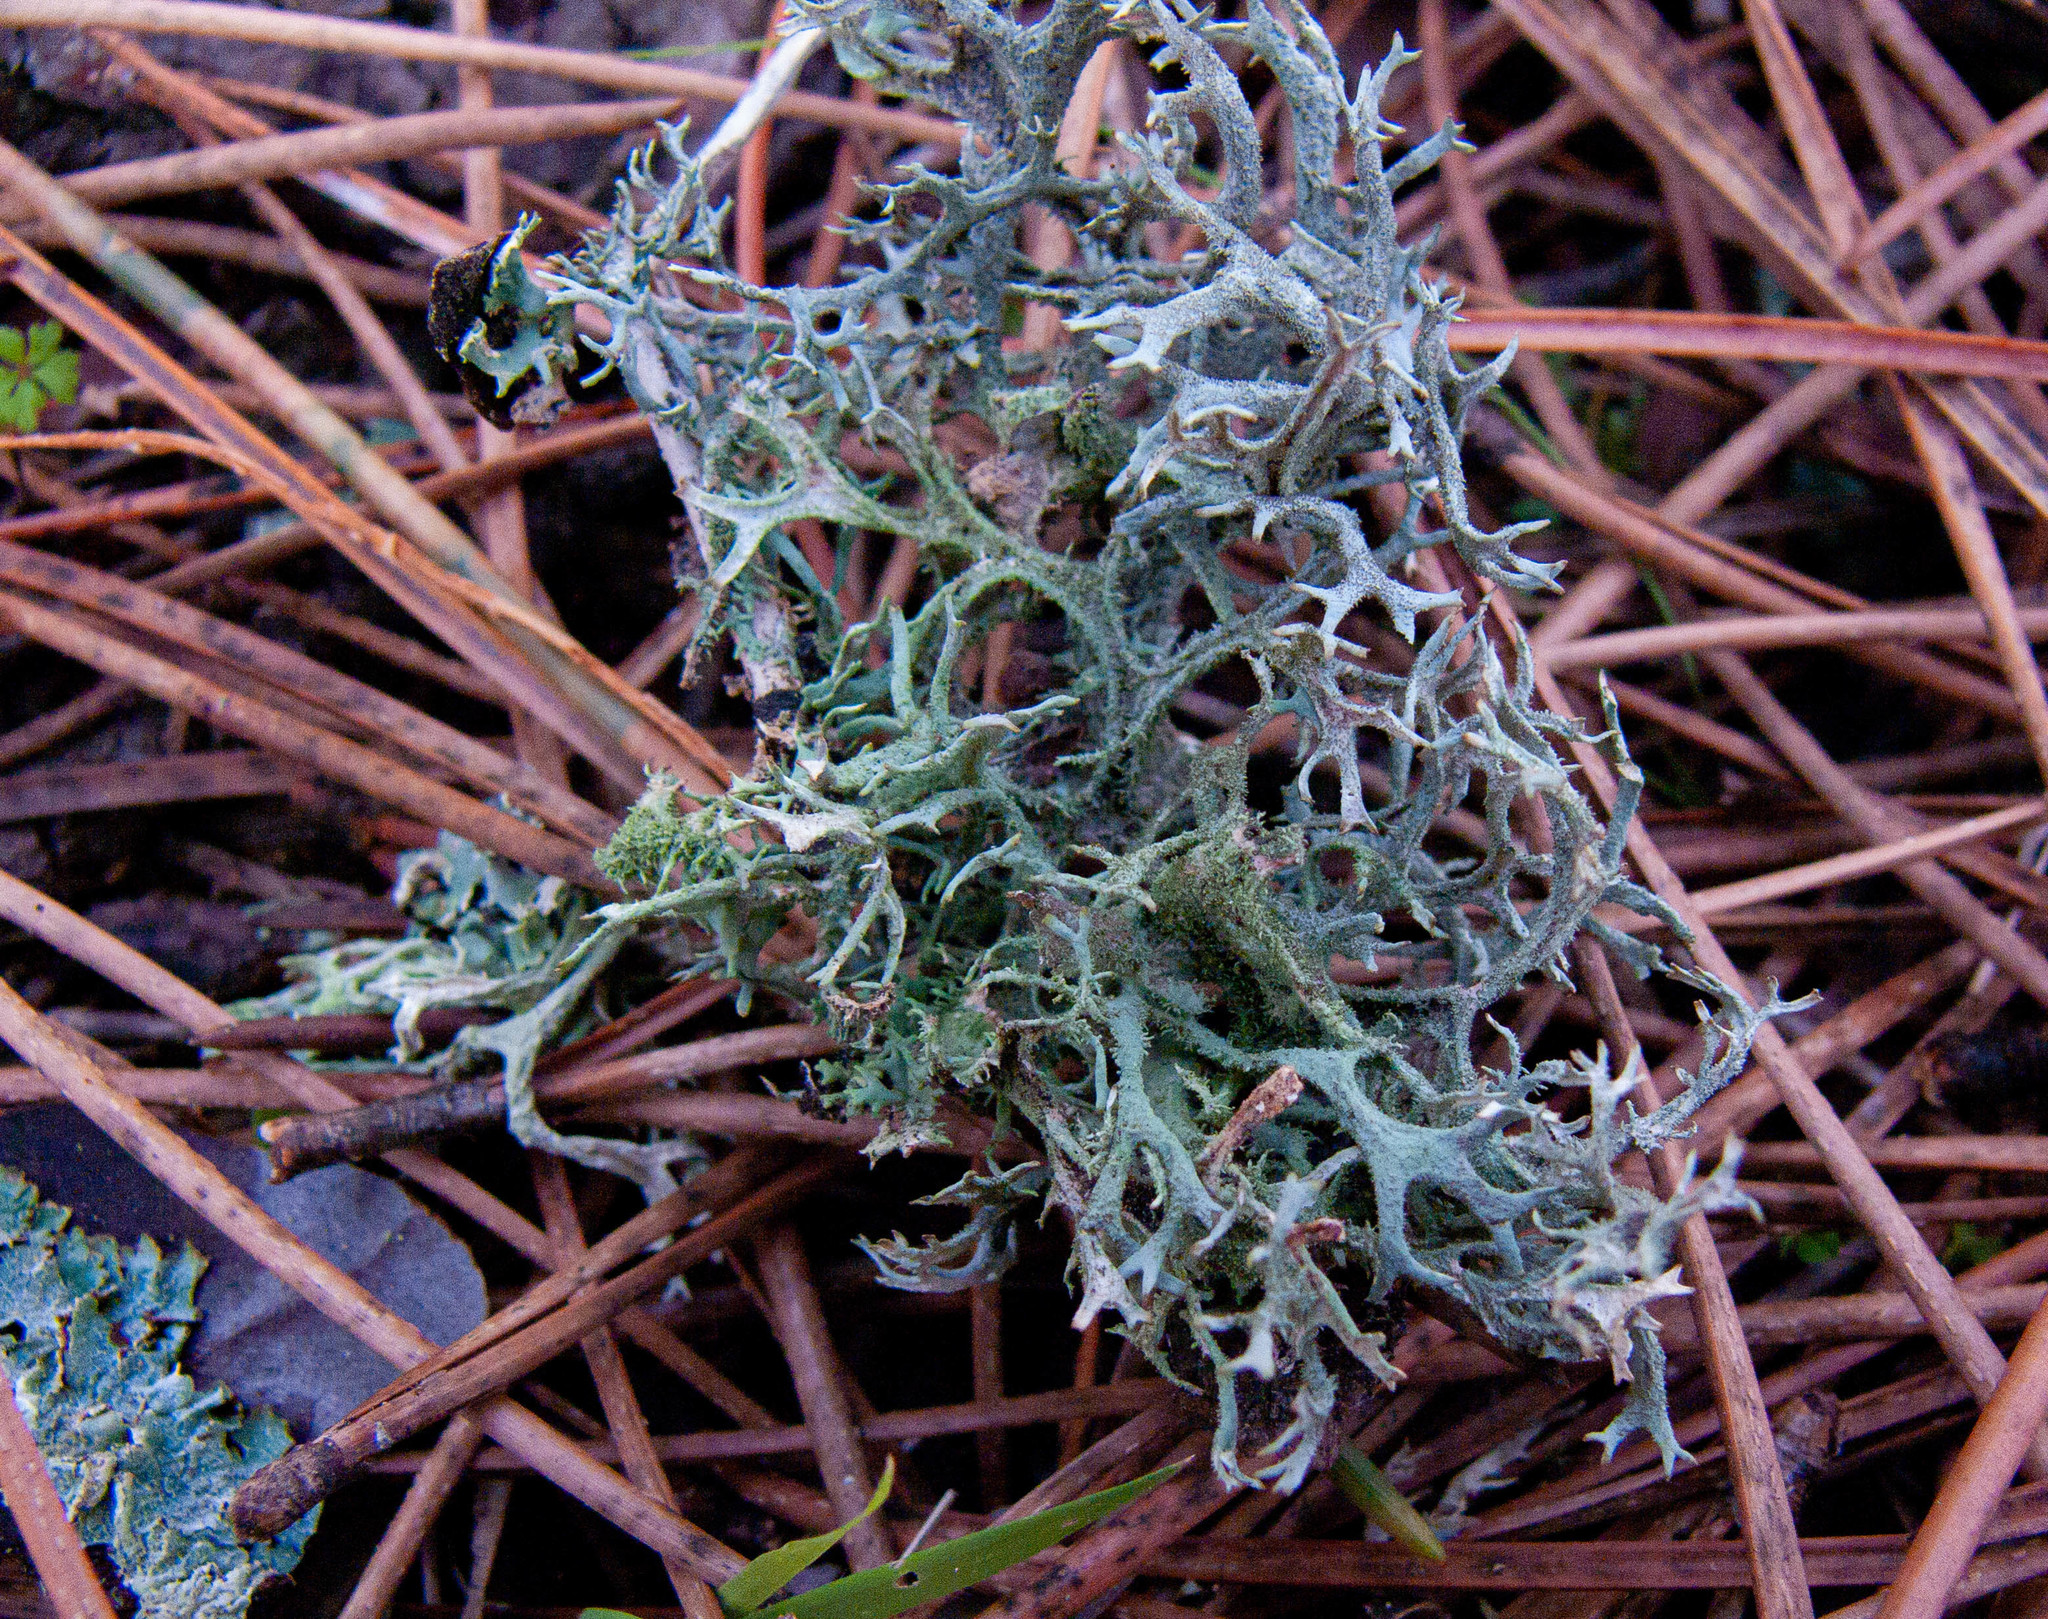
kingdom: Fungi
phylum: Ascomycota
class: Lecanoromycetes
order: Lecanorales
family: Parmeliaceae
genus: Pseudevernia
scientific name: Pseudevernia furfuracea
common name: Tree moss
